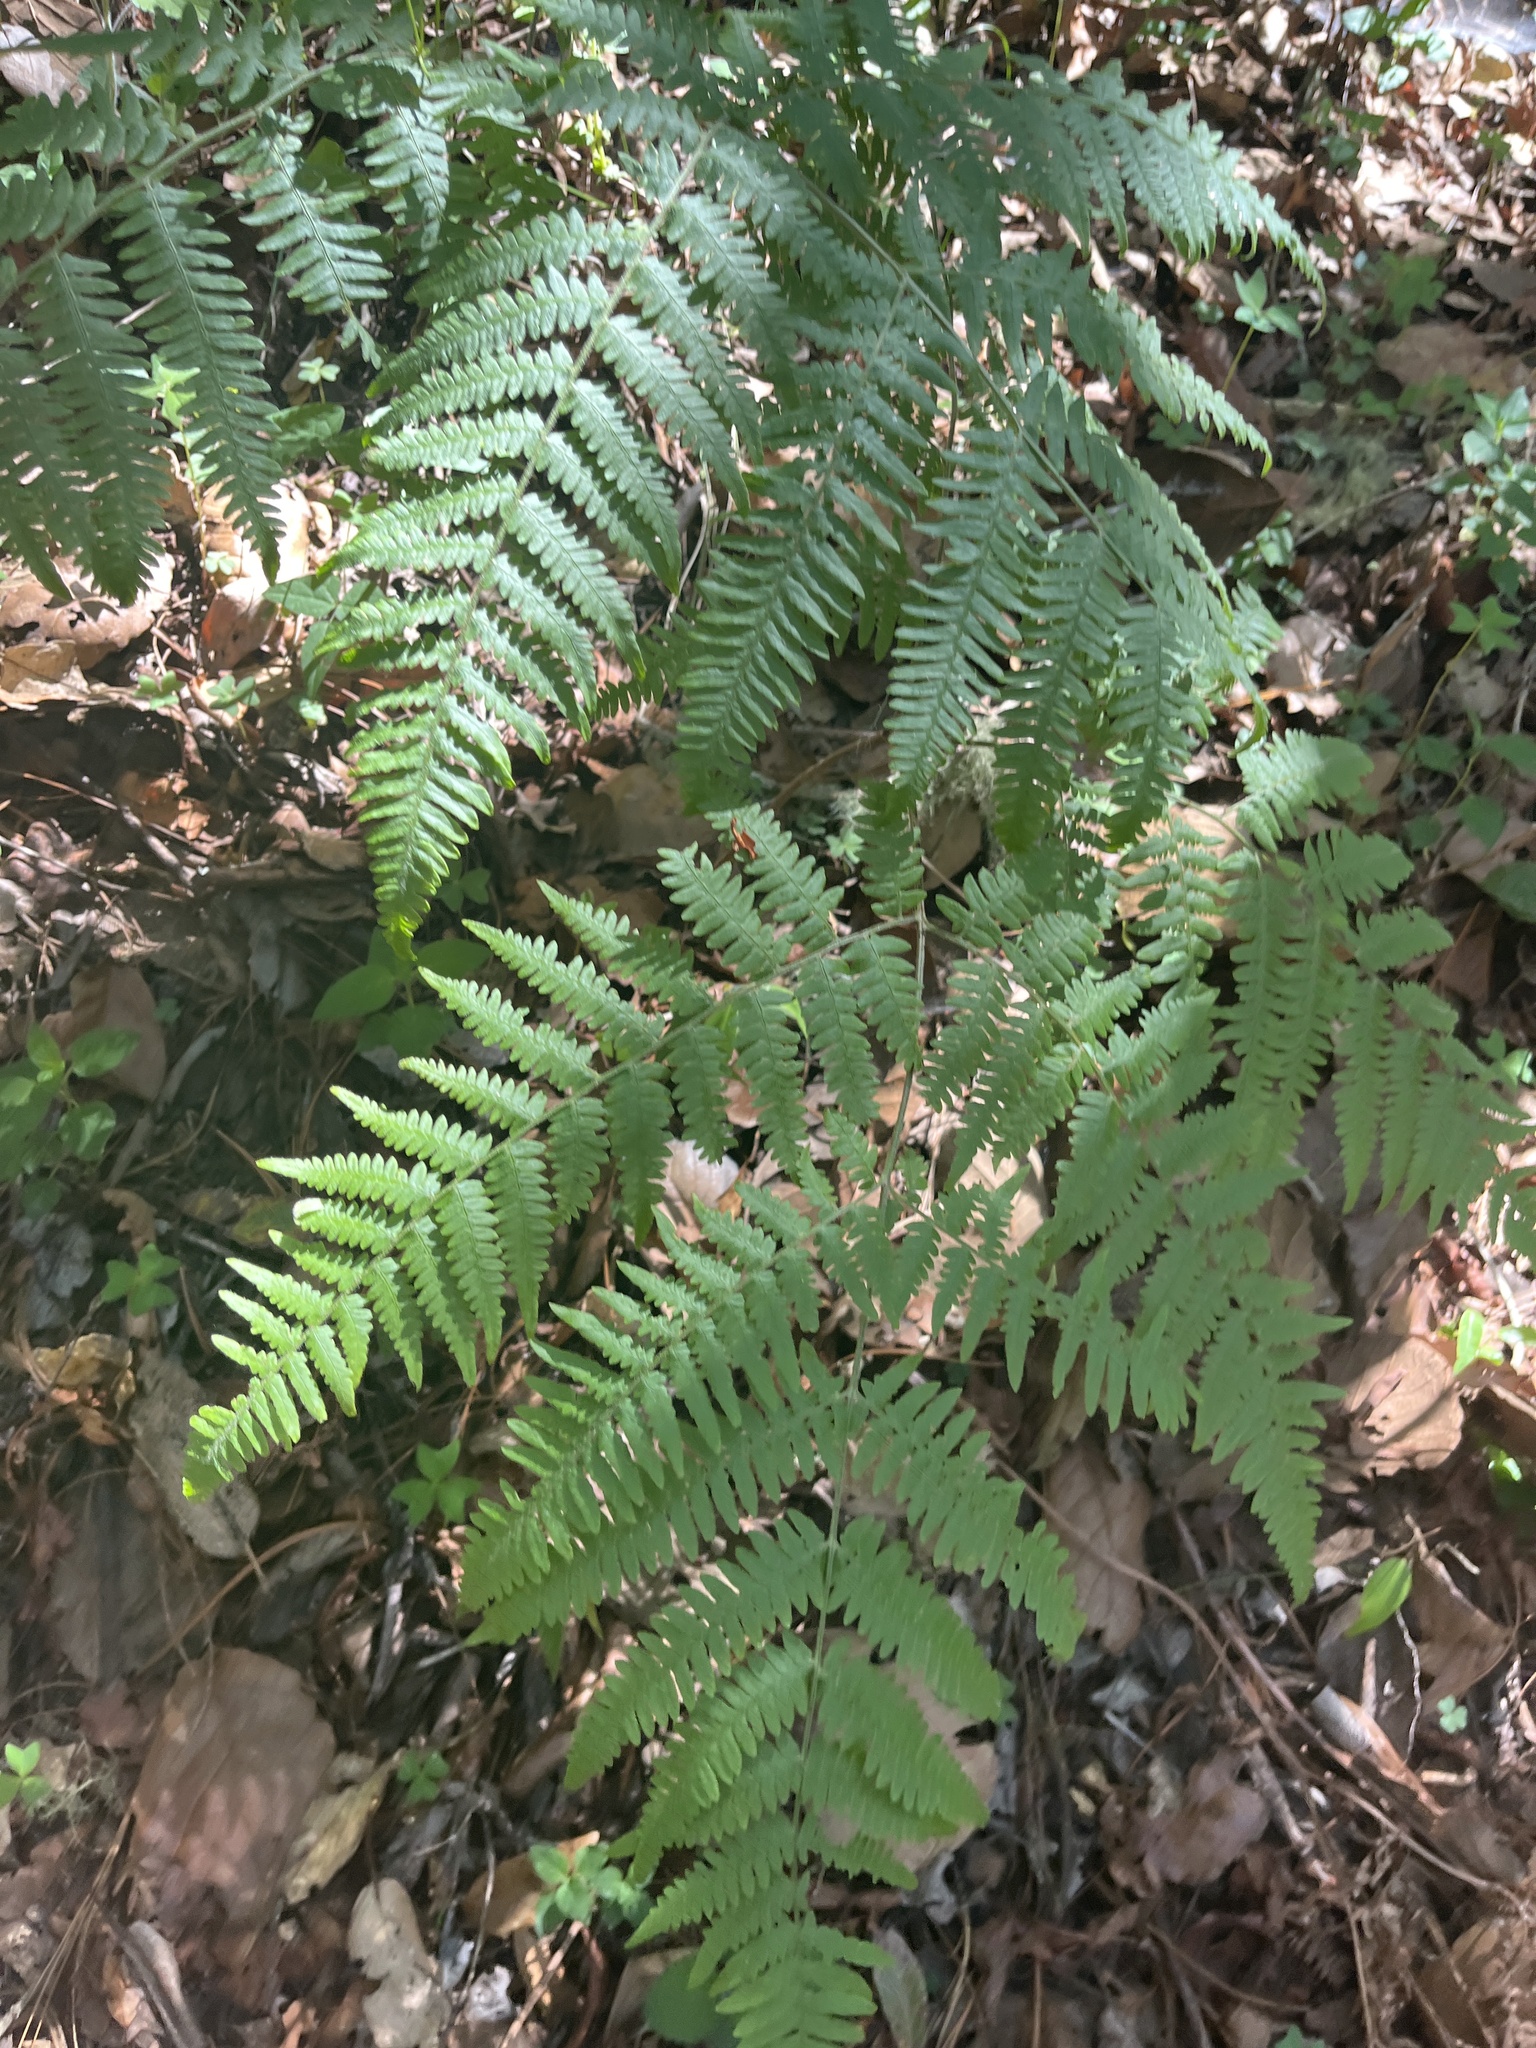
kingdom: Plantae
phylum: Tracheophyta
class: Polypodiopsida
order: Polypodiales
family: Dennstaedtiaceae
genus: Pteridium
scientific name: Pteridium aquilinum
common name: Bracken
